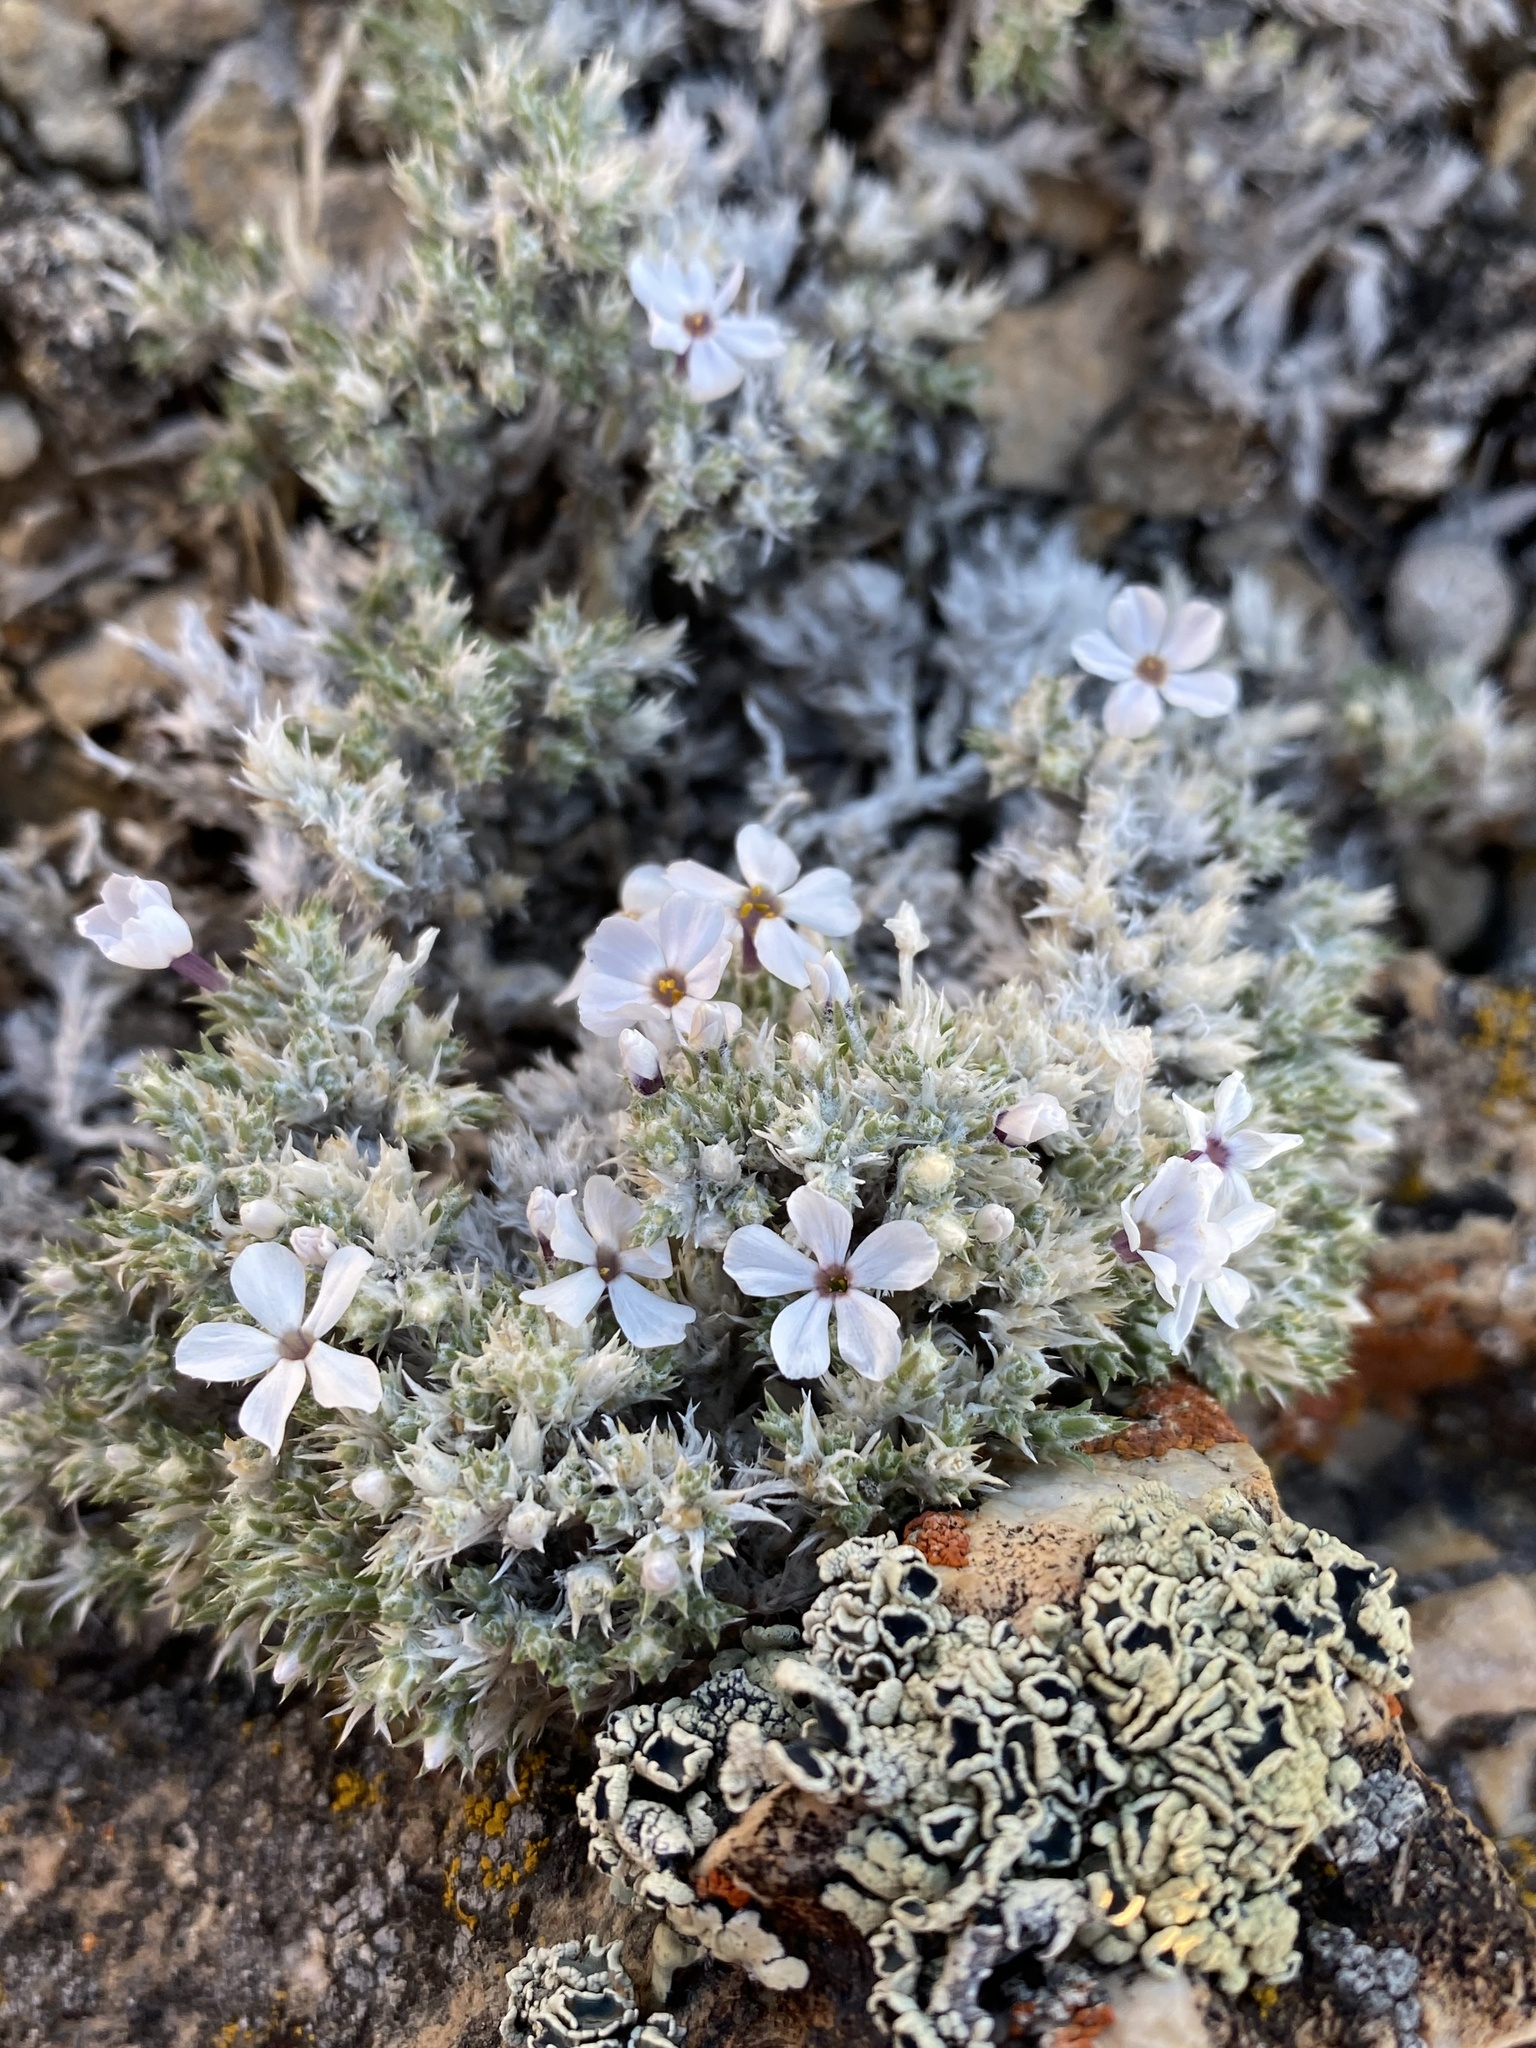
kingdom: Plantae
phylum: Tracheophyta
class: Magnoliopsida
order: Ericales
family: Polemoniaceae
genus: Phlox
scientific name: Phlox hoodii
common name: Moss phlox
